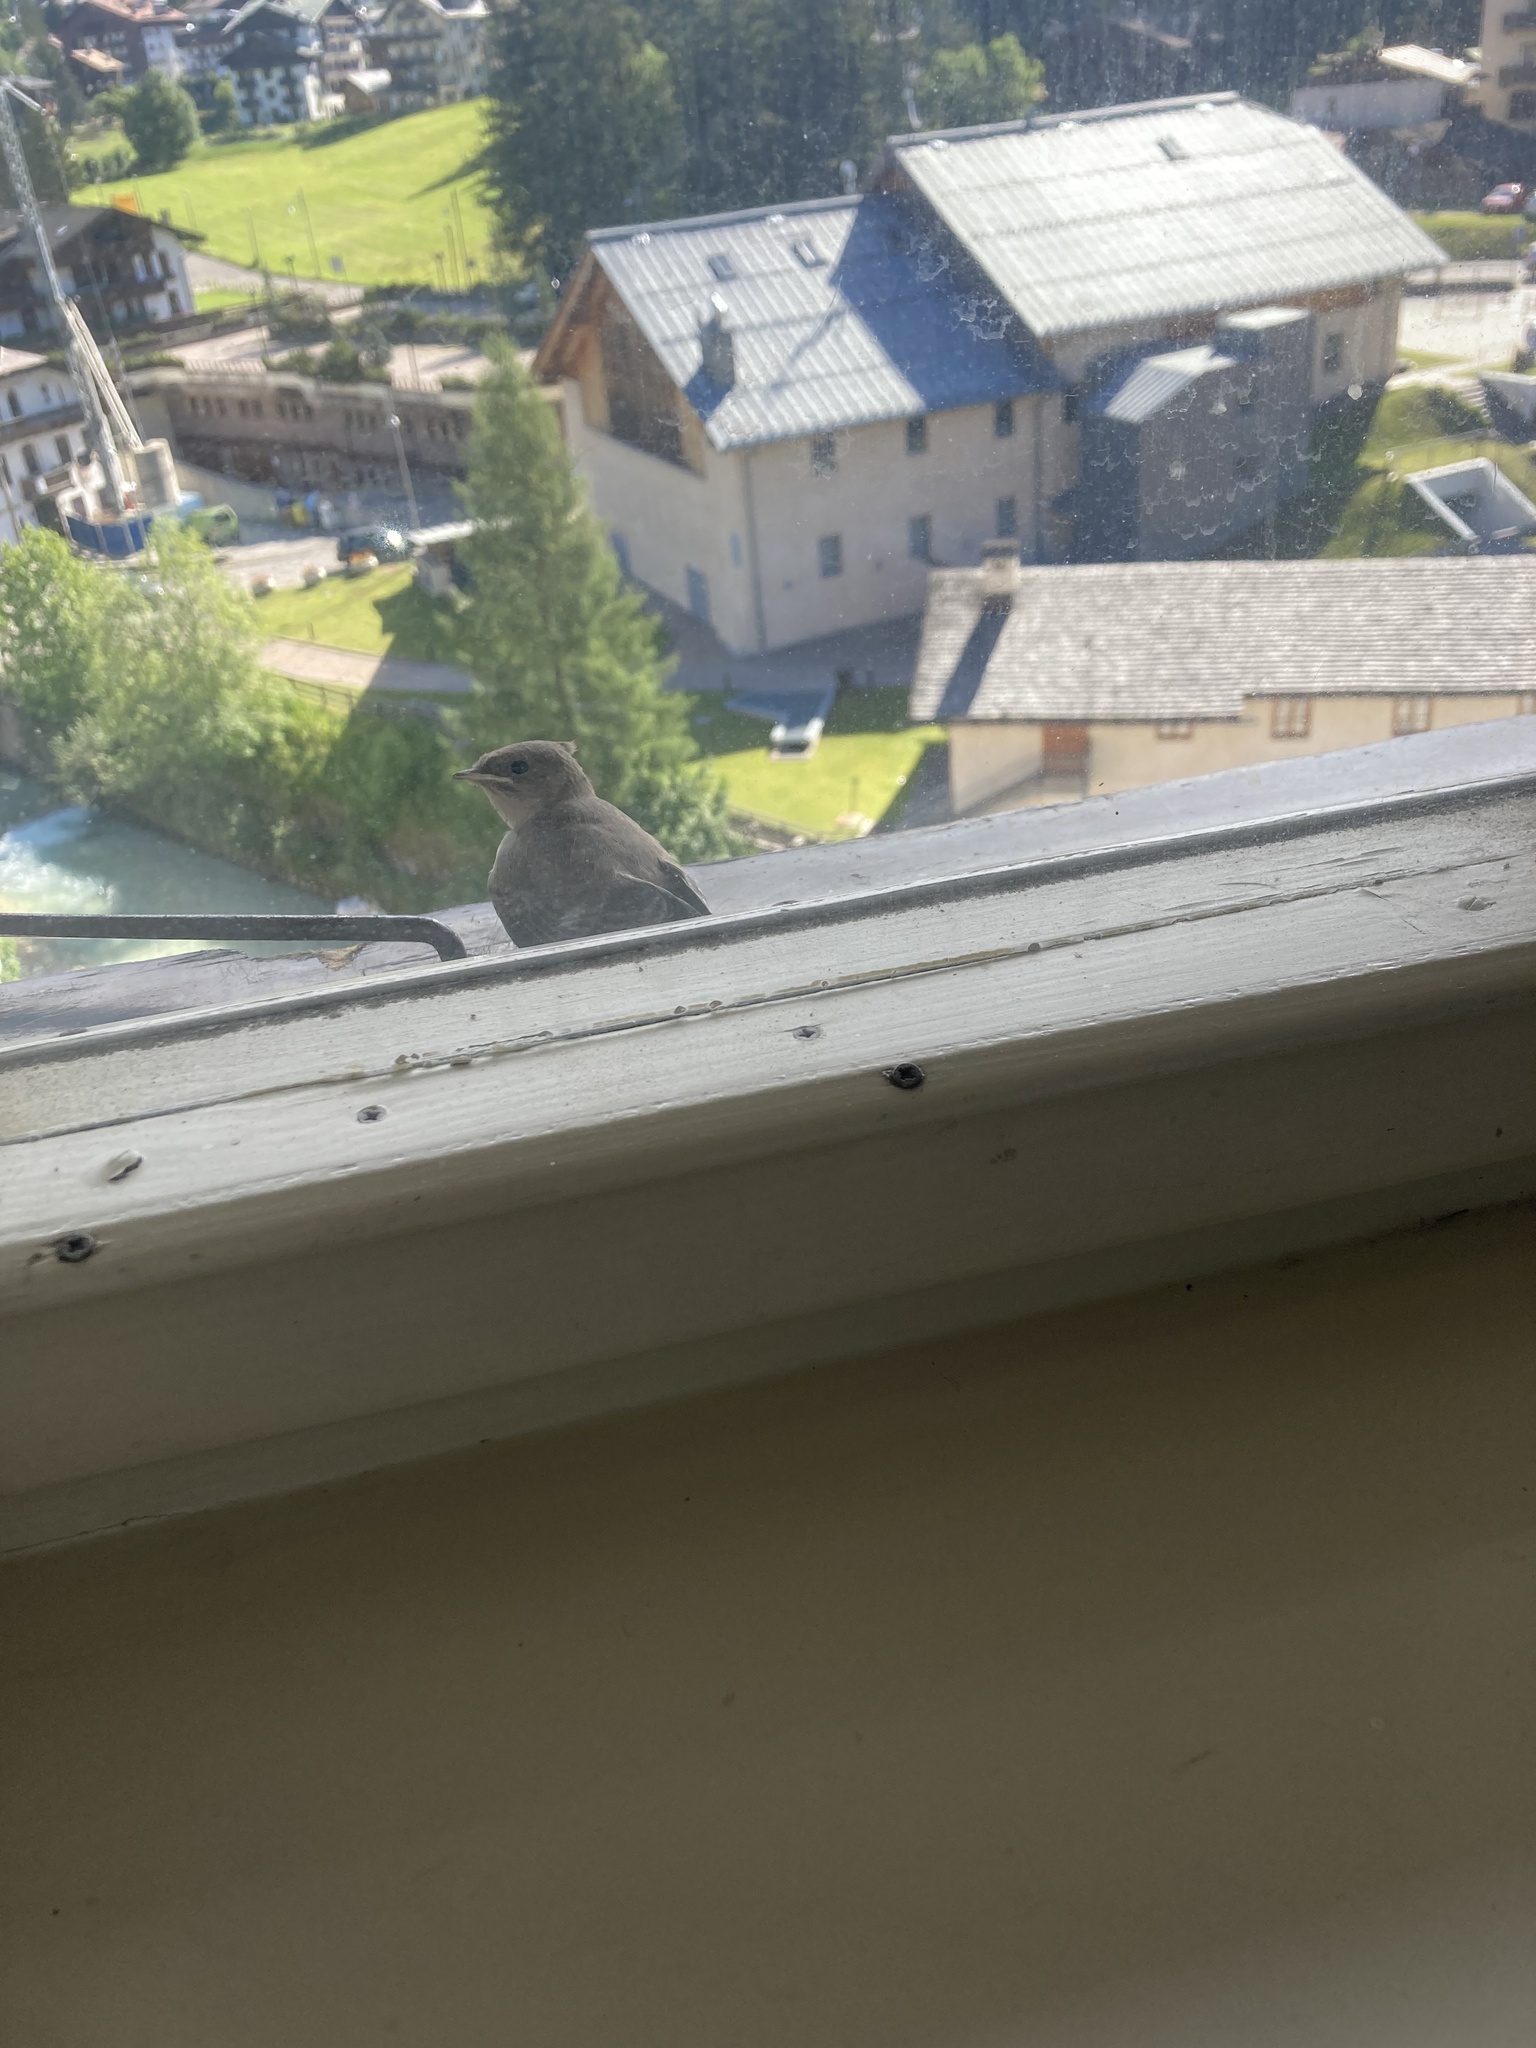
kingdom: Animalia
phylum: Chordata
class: Aves
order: Passeriformes
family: Hirundinidae
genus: Ptyonoprogne
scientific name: Ptyonoprogne rupestris
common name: Eurasian crag martin
